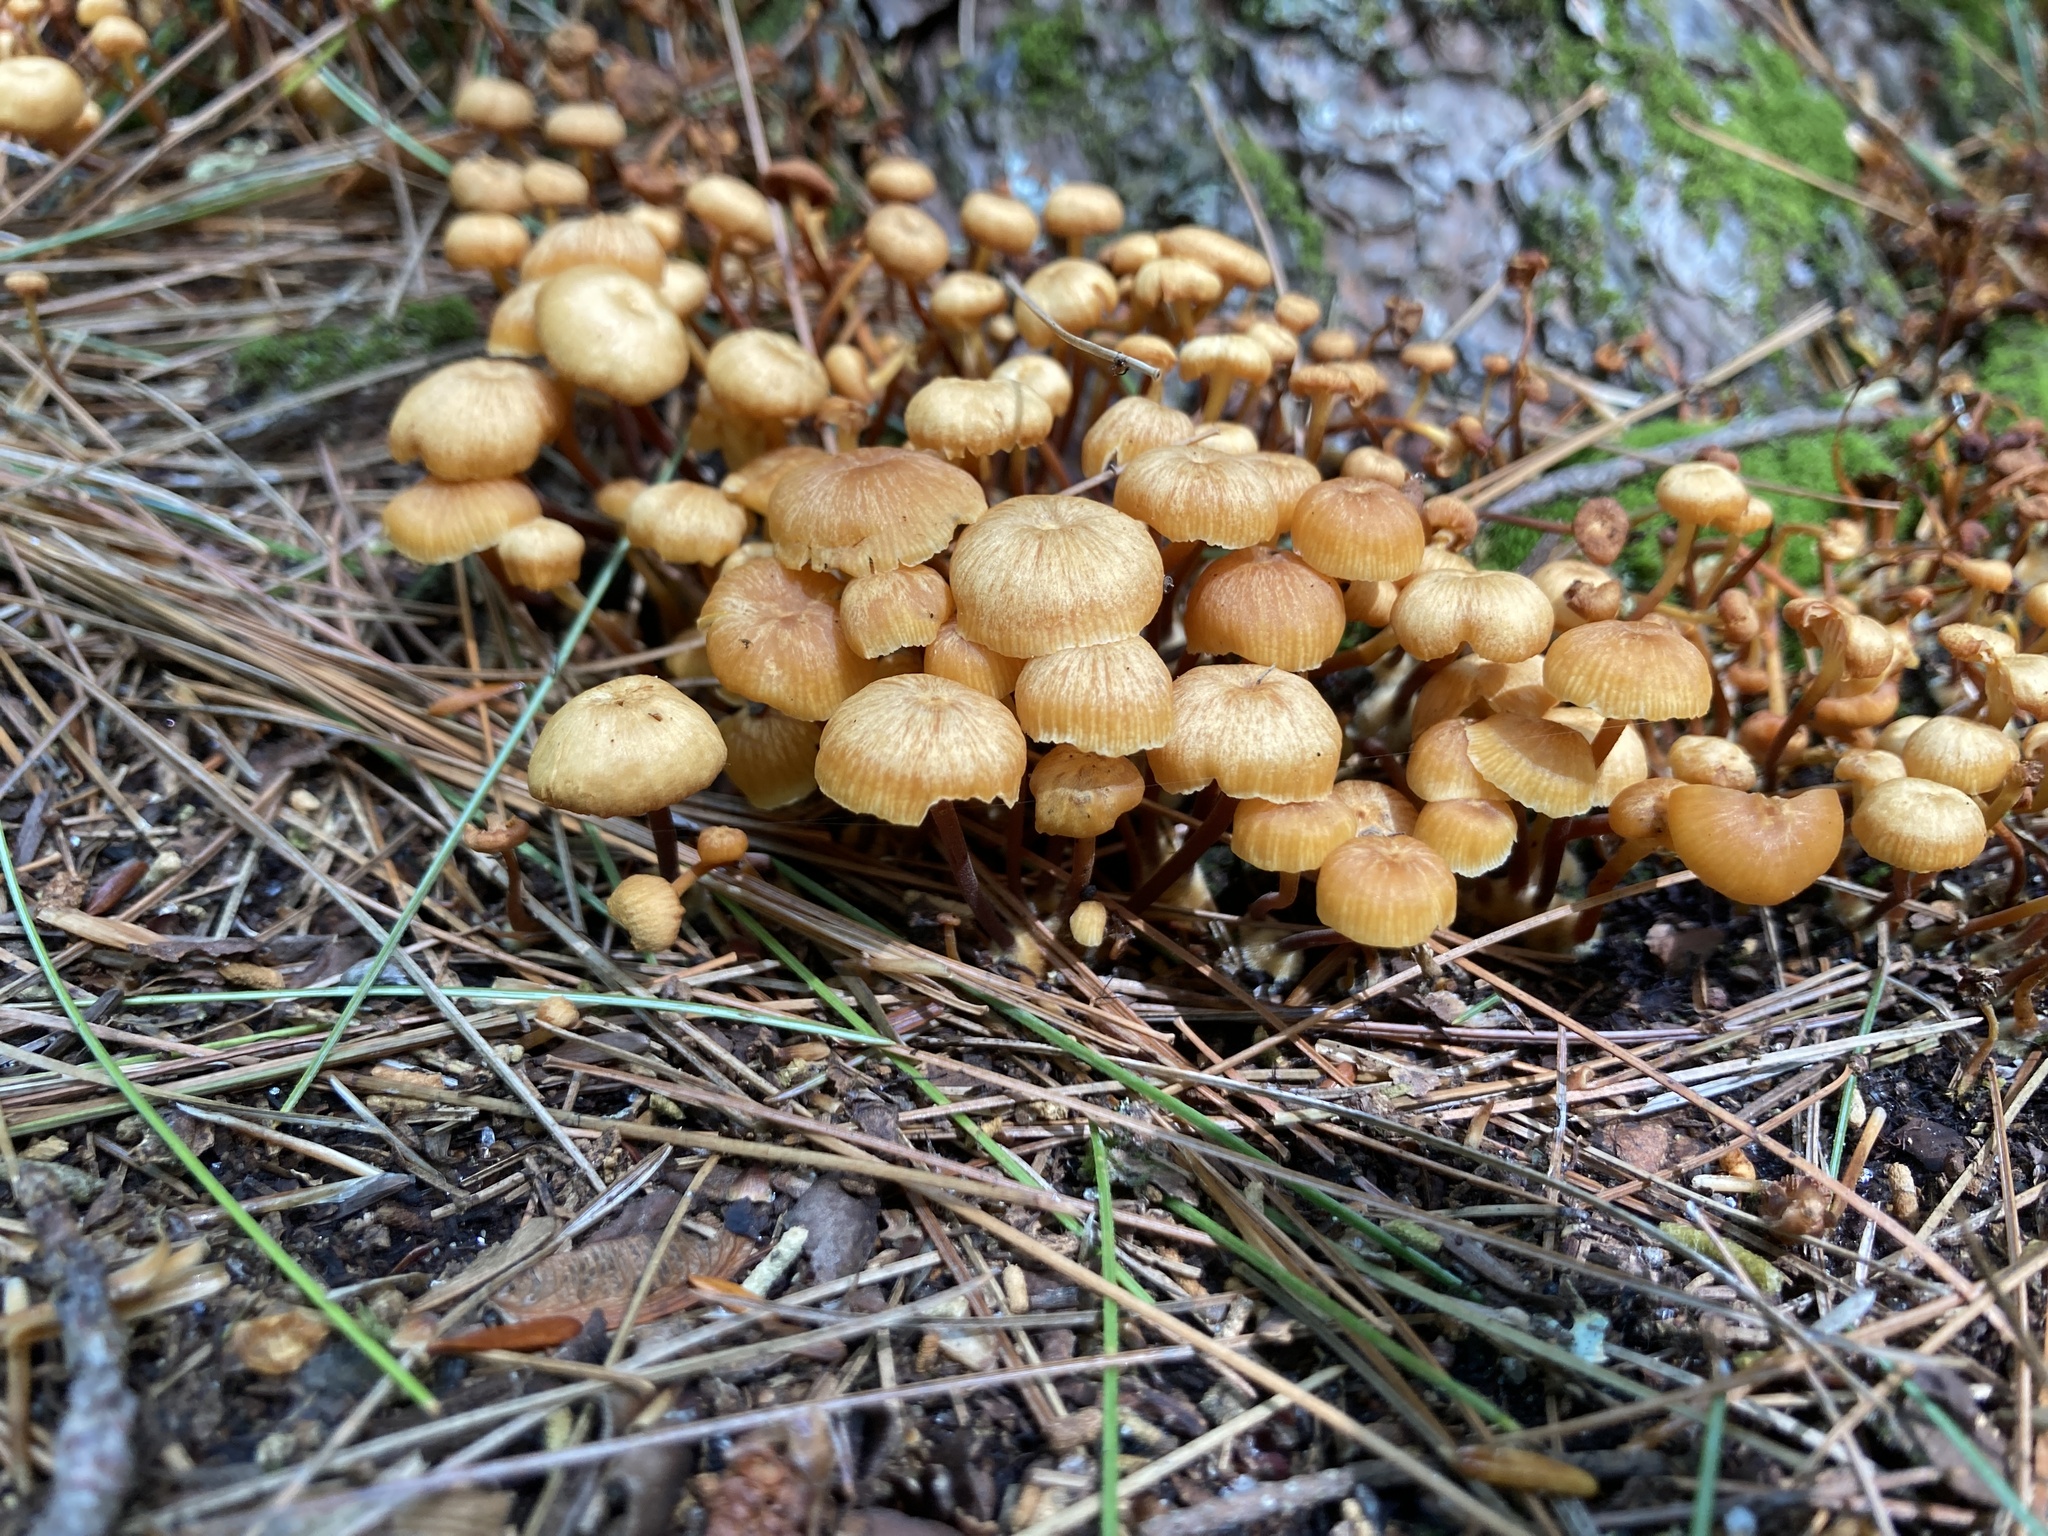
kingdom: Fungi
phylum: Basidiomycota
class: Agaricomycetes
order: Agaricales
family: Mycenaceae
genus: Xeromphalina
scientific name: Xeromphalina campanella
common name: Pinewood gingertail
